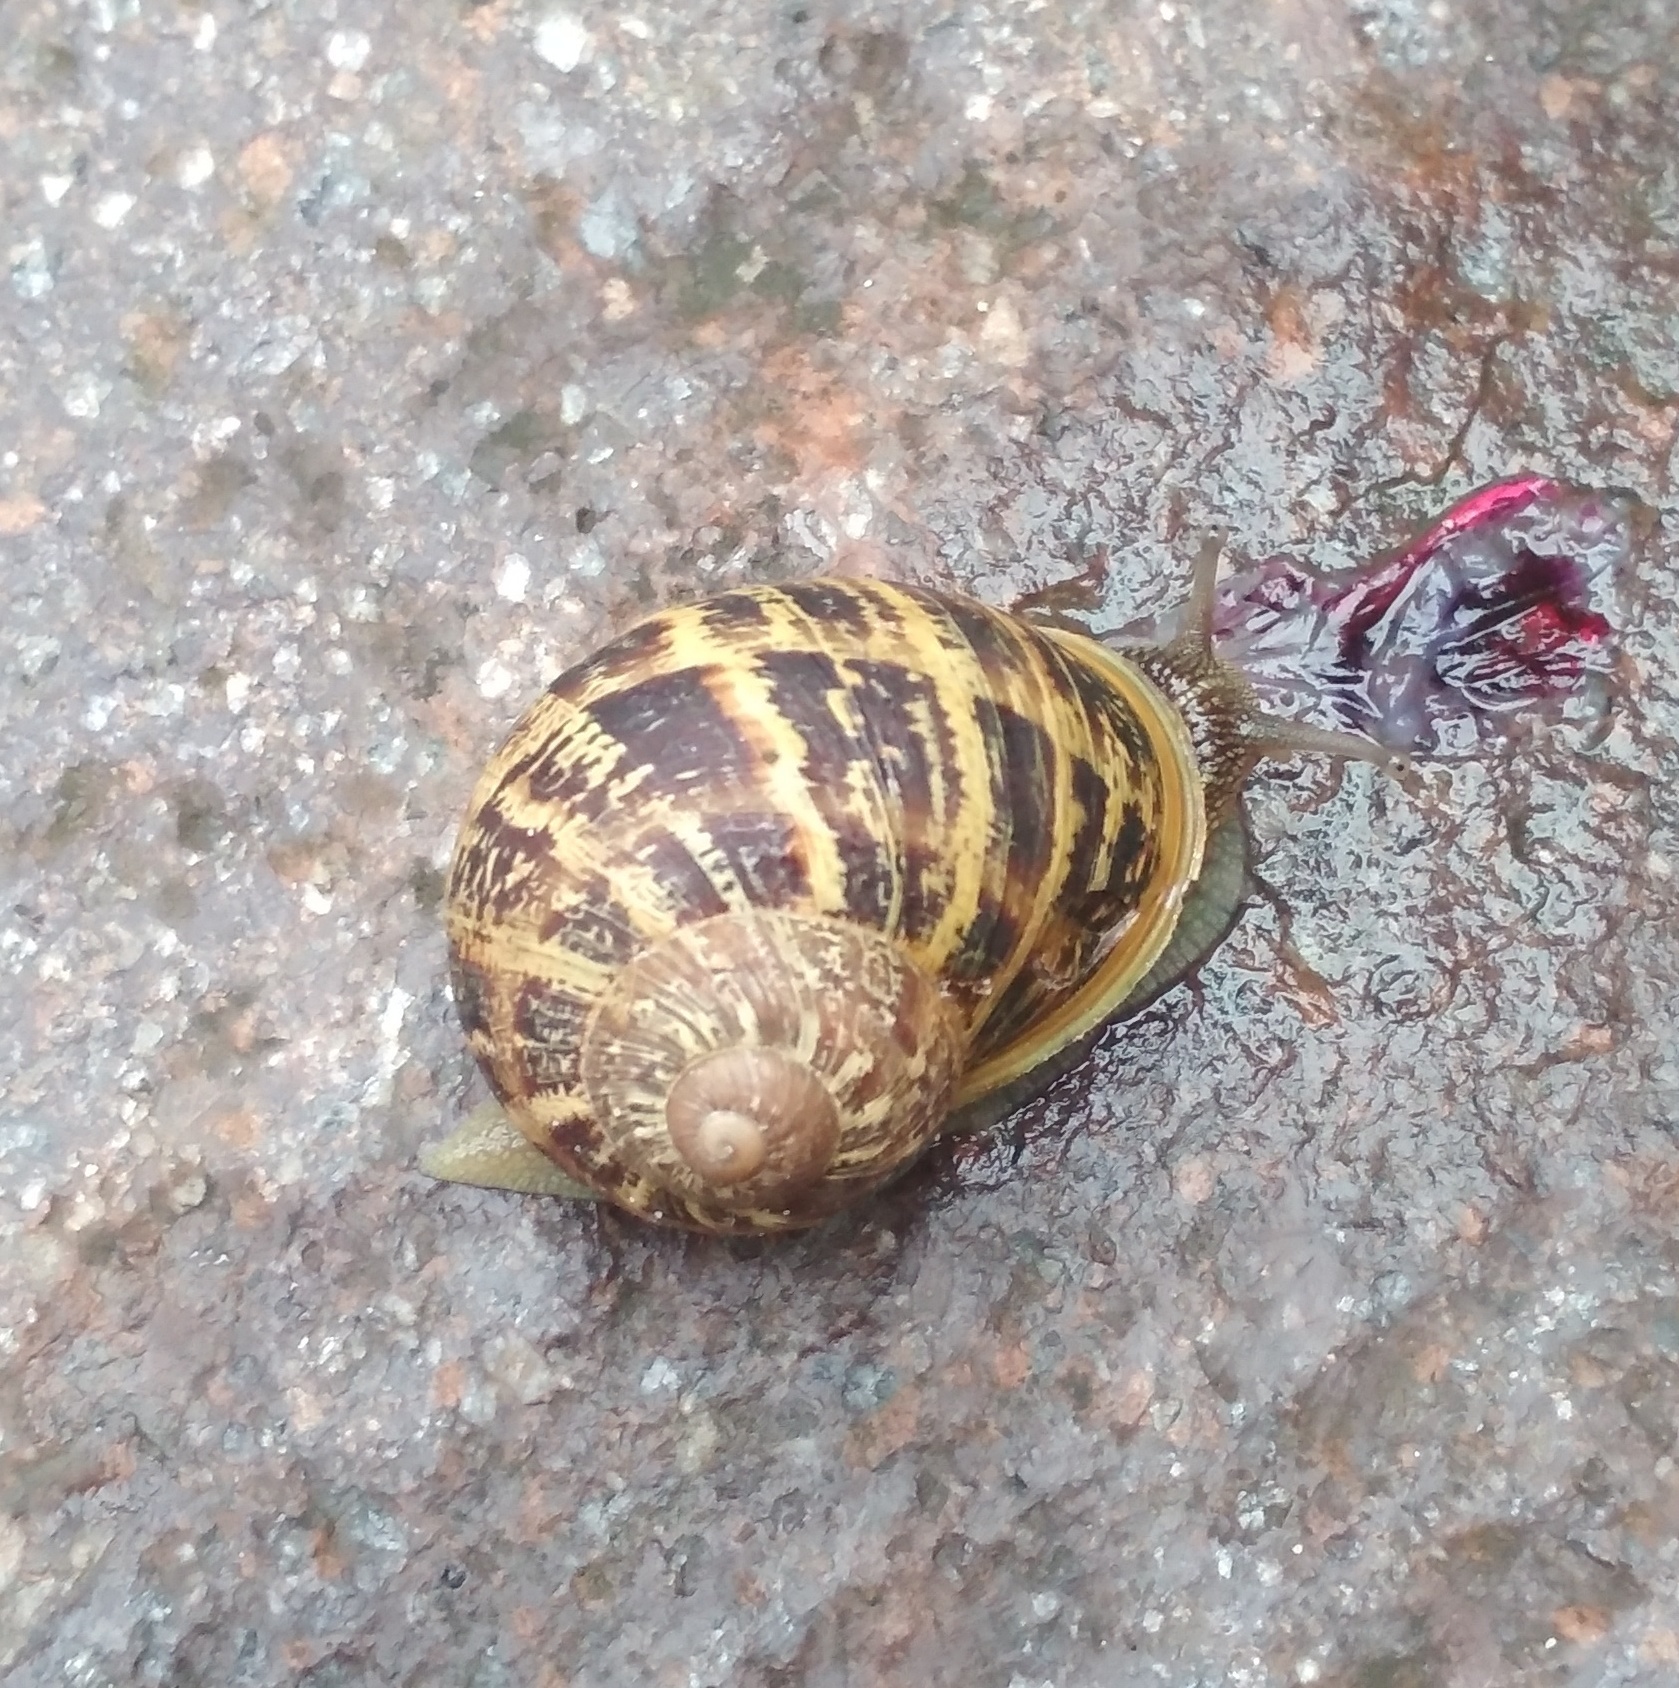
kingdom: Animalia
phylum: Mollusca
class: Gastropoda
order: Stylommatophora
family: Helicidae
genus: Cornu
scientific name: Cornu aspersum
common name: Brown garden snail
